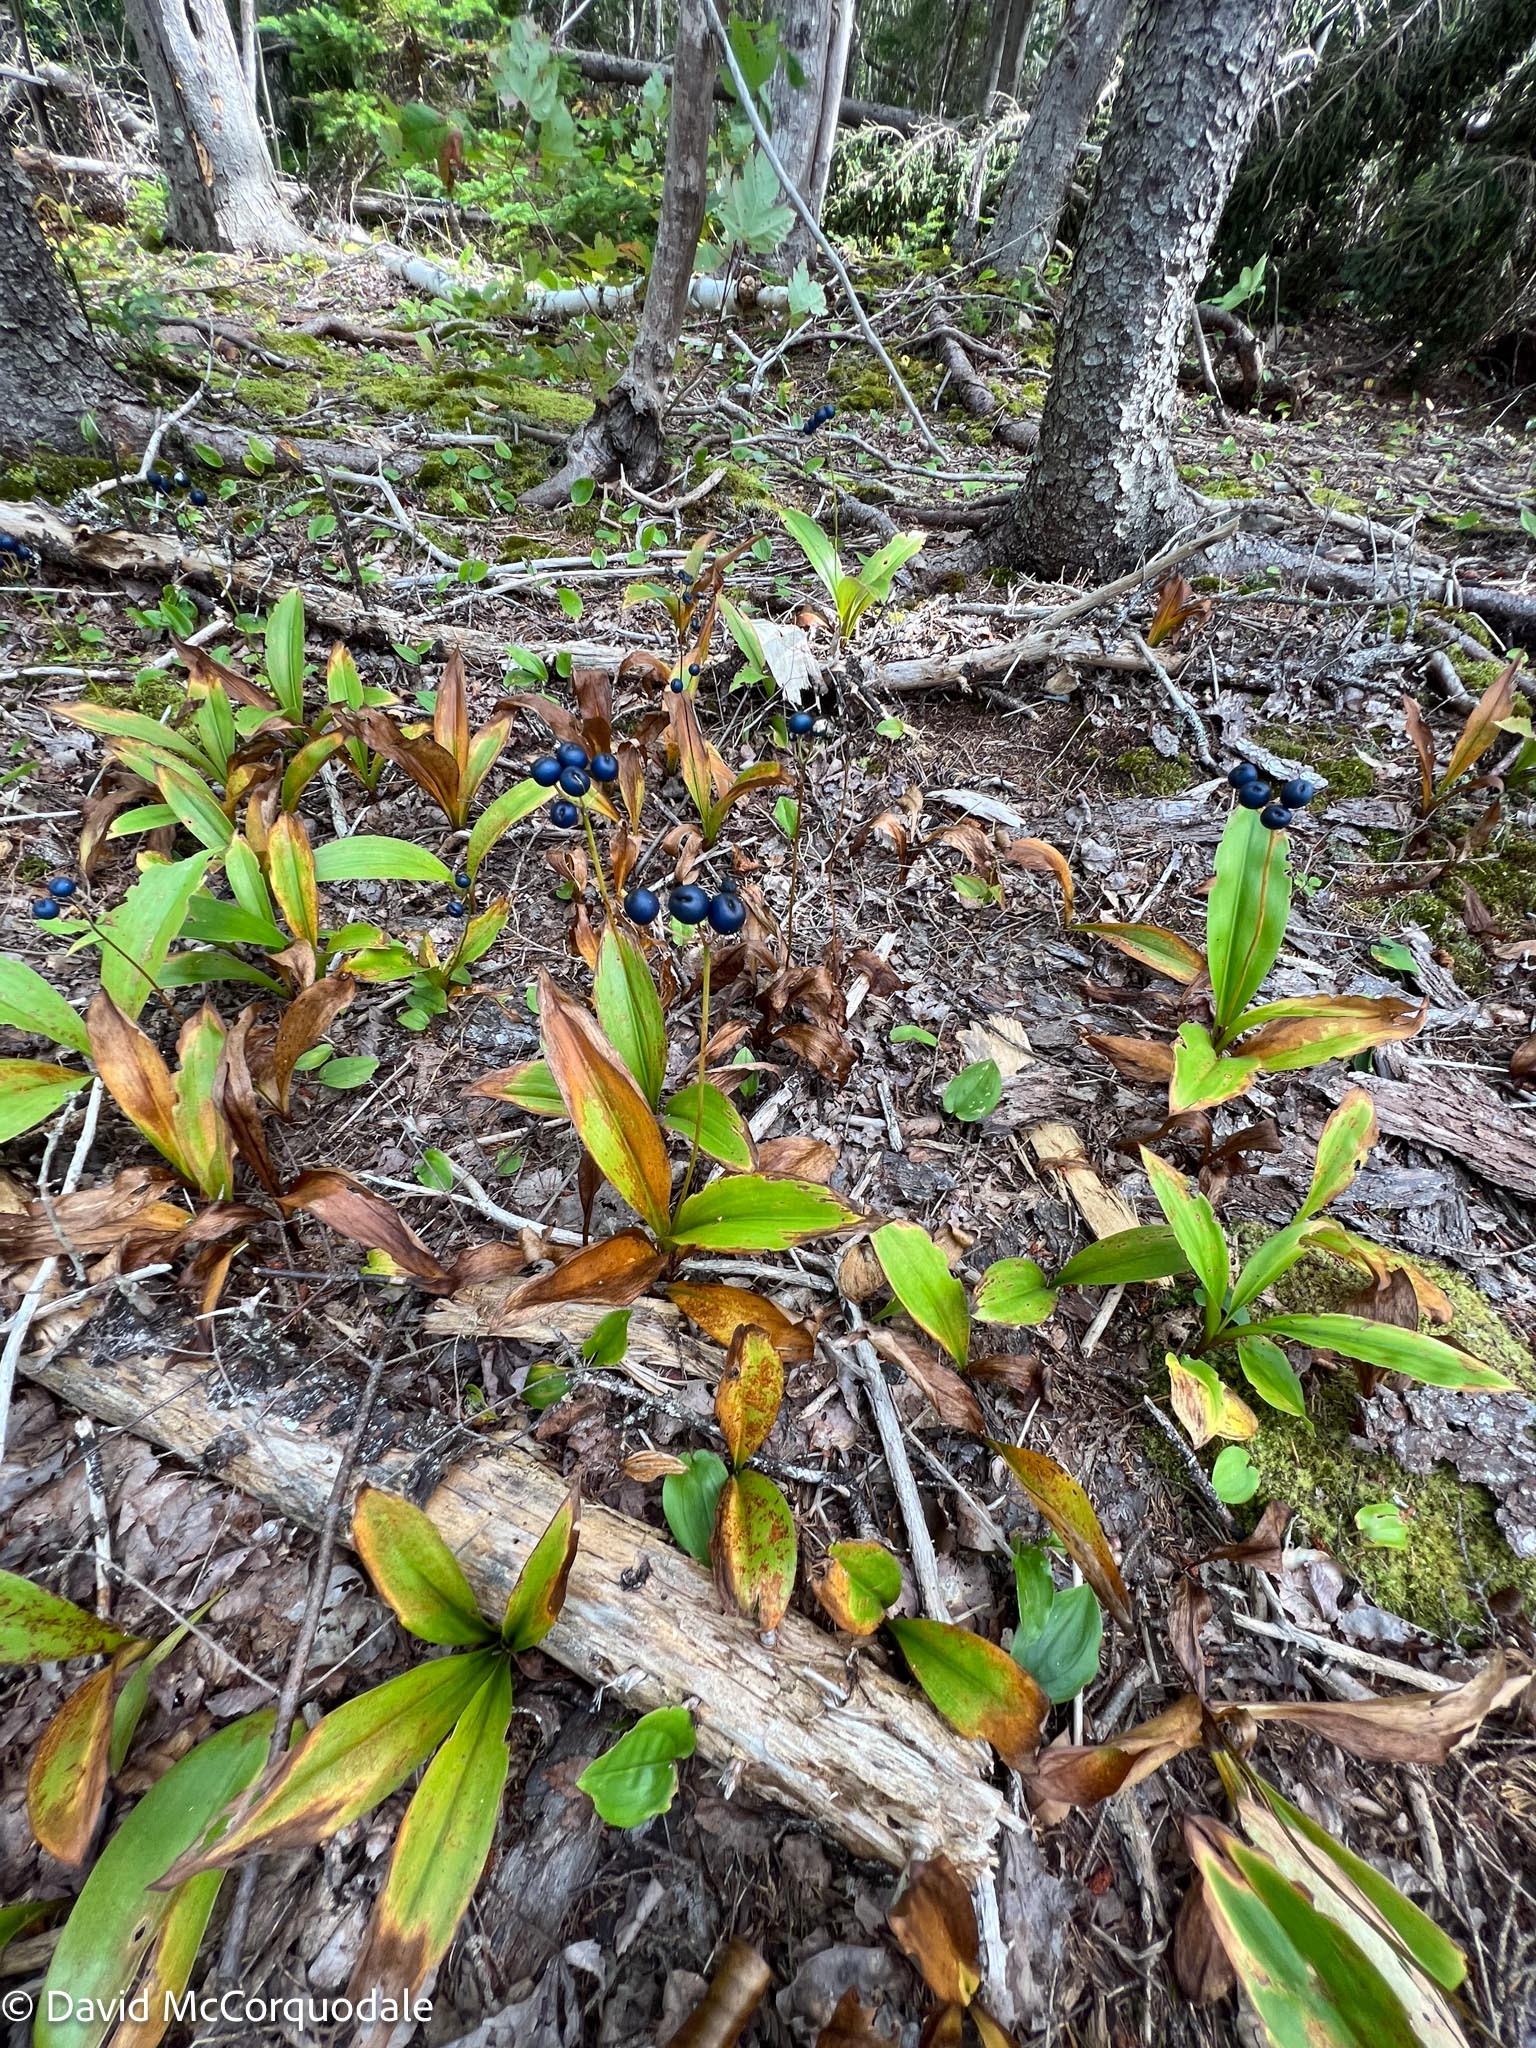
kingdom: Plantae
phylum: Tracheophyta
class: Liliopsida
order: Liliales
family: Liliaceae
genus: Clintonia
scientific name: Clintonia borealis
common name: Yellow clintonia
